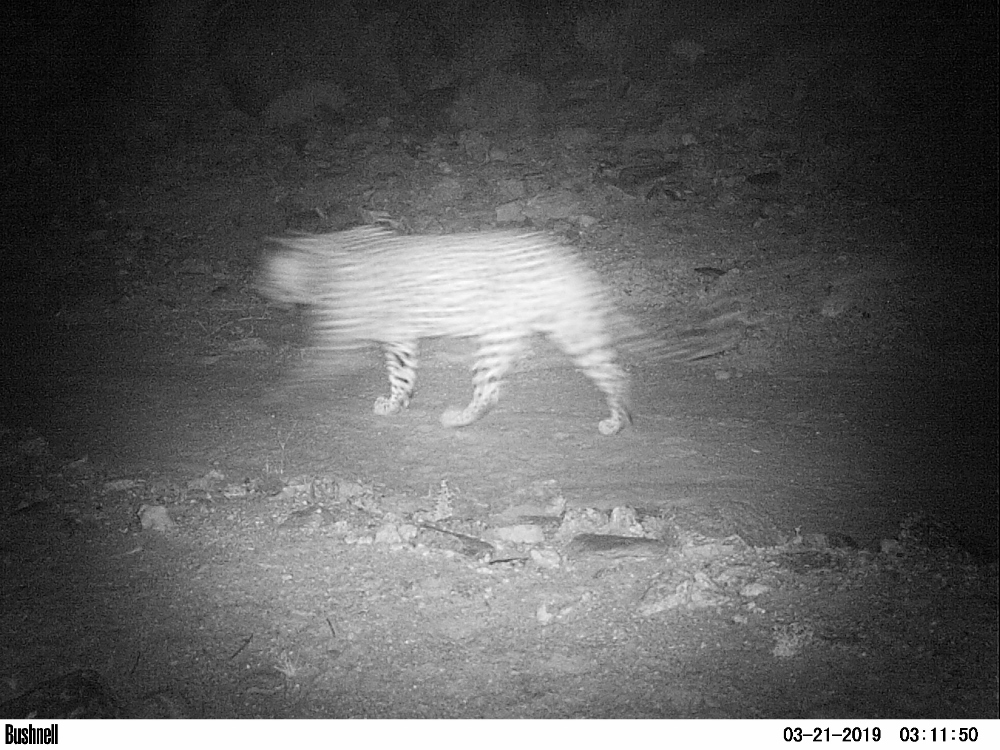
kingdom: Animalia
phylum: Chordata
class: Mammalia
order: Carnivora
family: Felidae
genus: Panthera
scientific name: Panthera pardus
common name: Leopard
